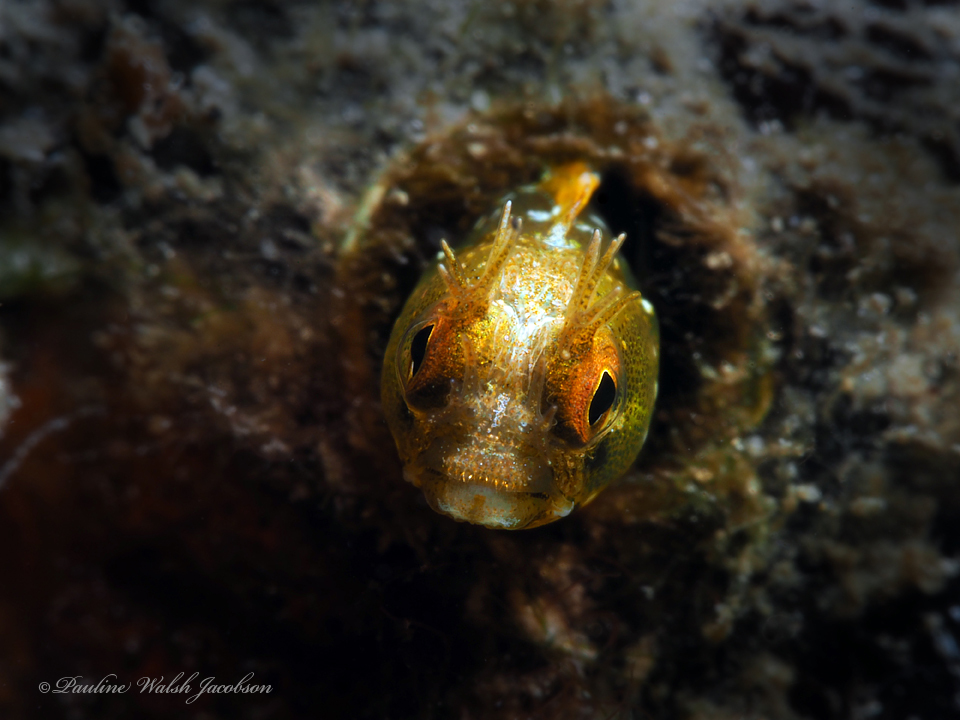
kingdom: Animalia
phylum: Chordata
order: Perciformes
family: Chaenopsidae
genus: Acanthemblemaria
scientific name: Acanthemblemaria aspera
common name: Roughhead blenny
